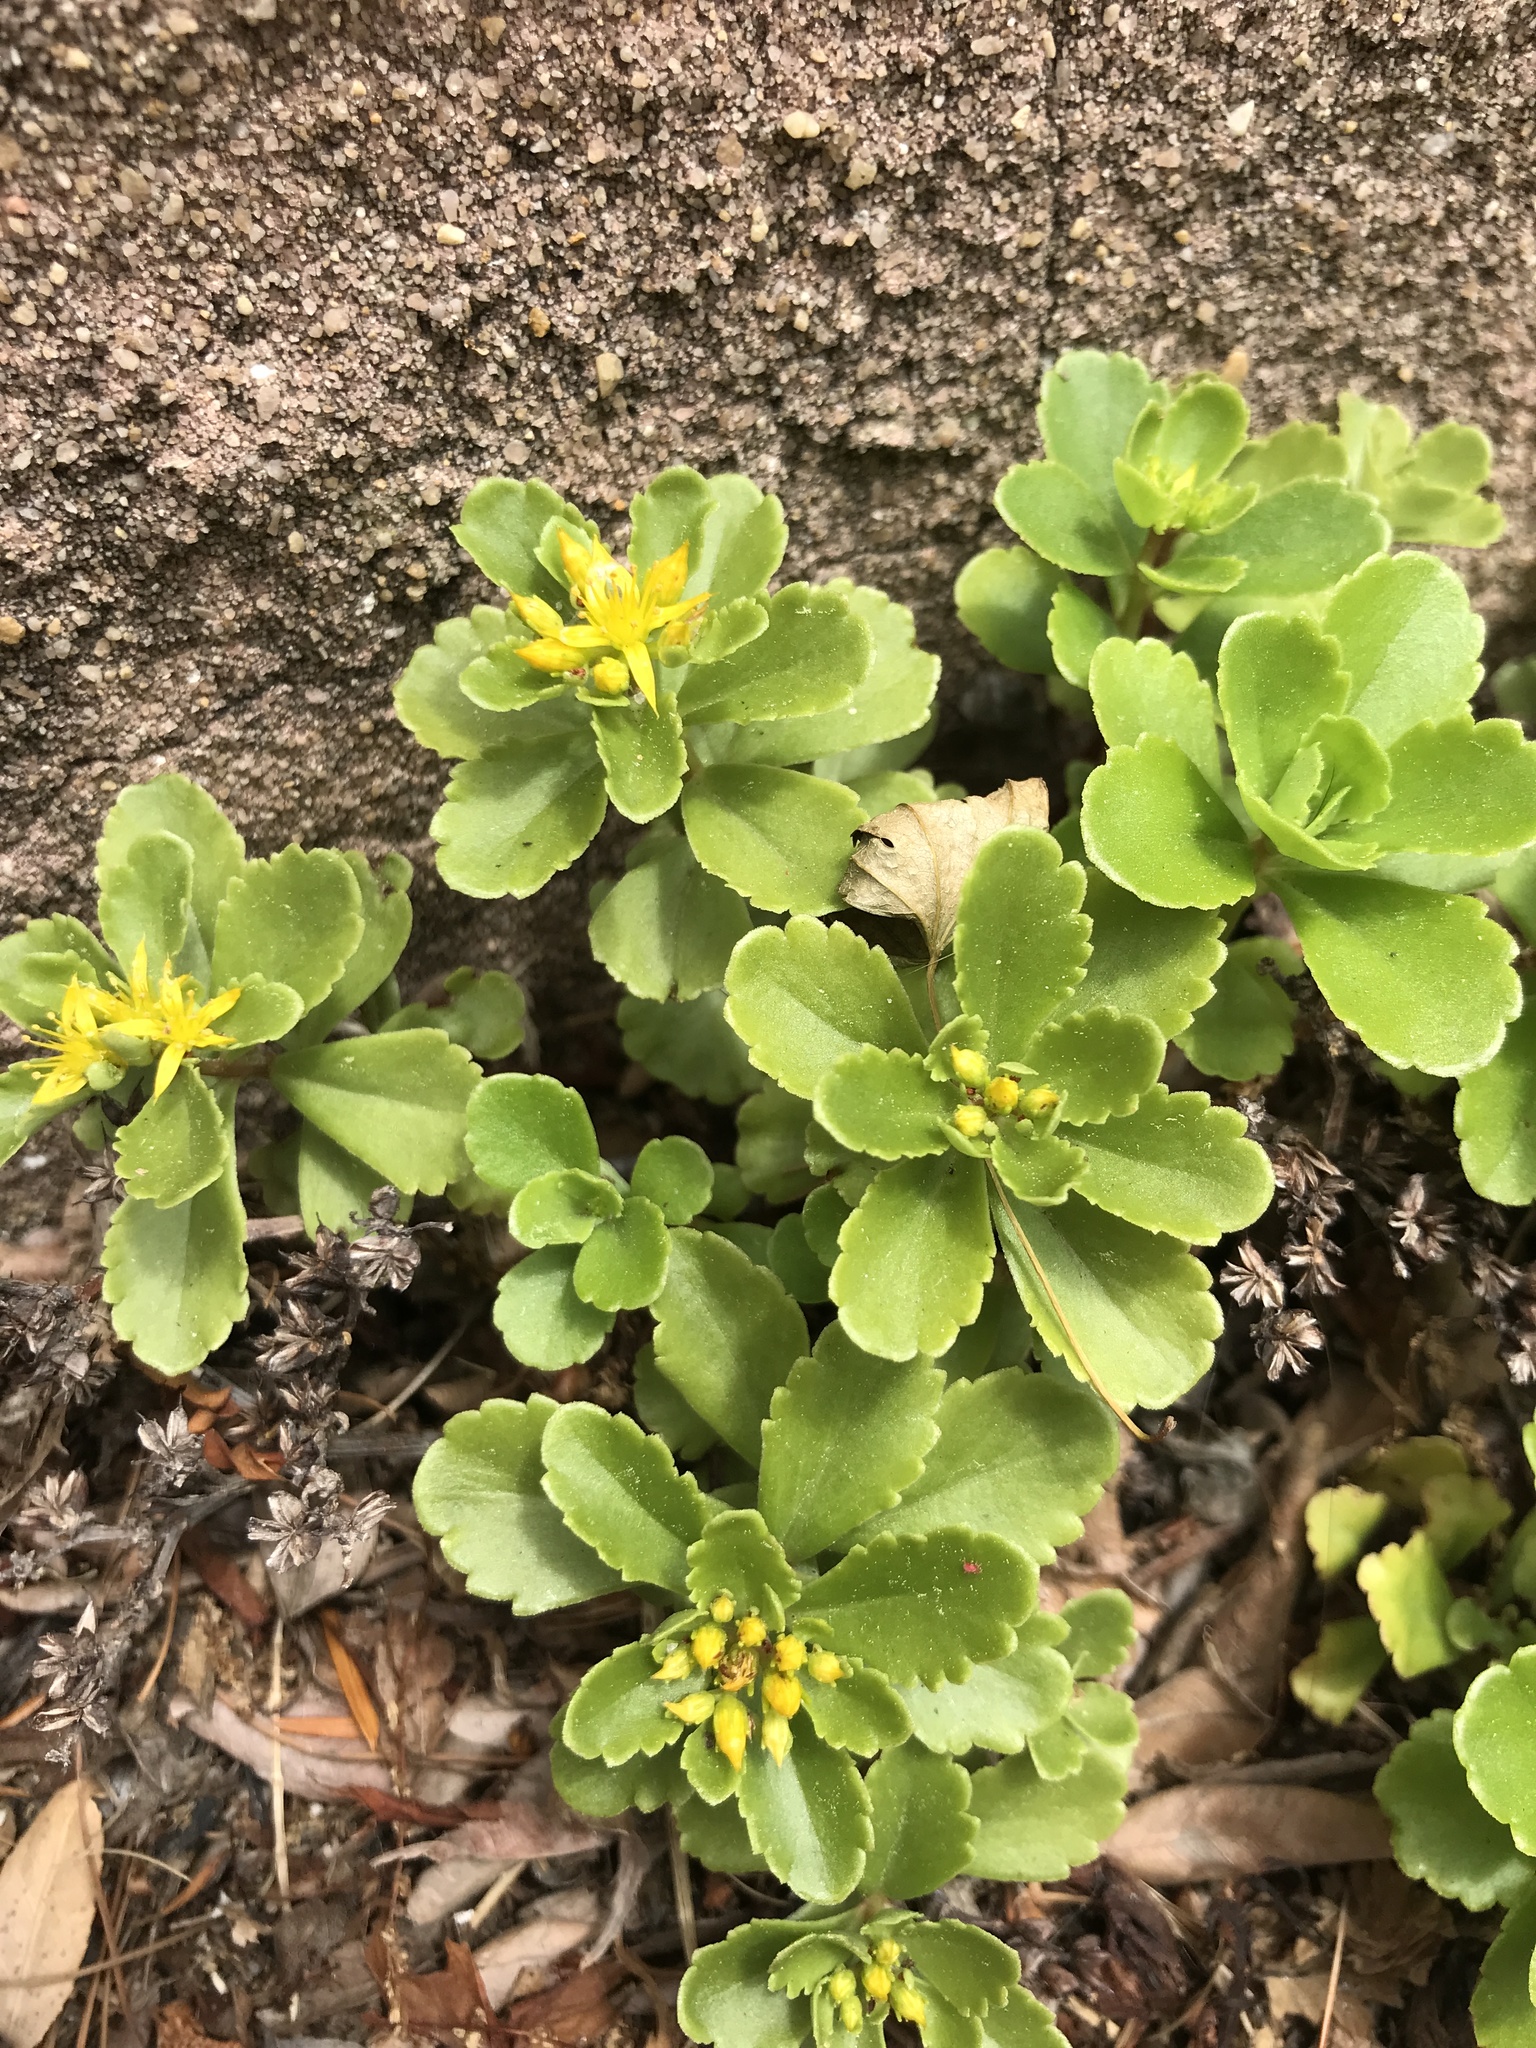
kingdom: Plantae
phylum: Tracheophyta
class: Magnoliopsida
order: Saxifragales
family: Crassulaceae
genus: Phedimus
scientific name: Phedimus ellacombeanus
